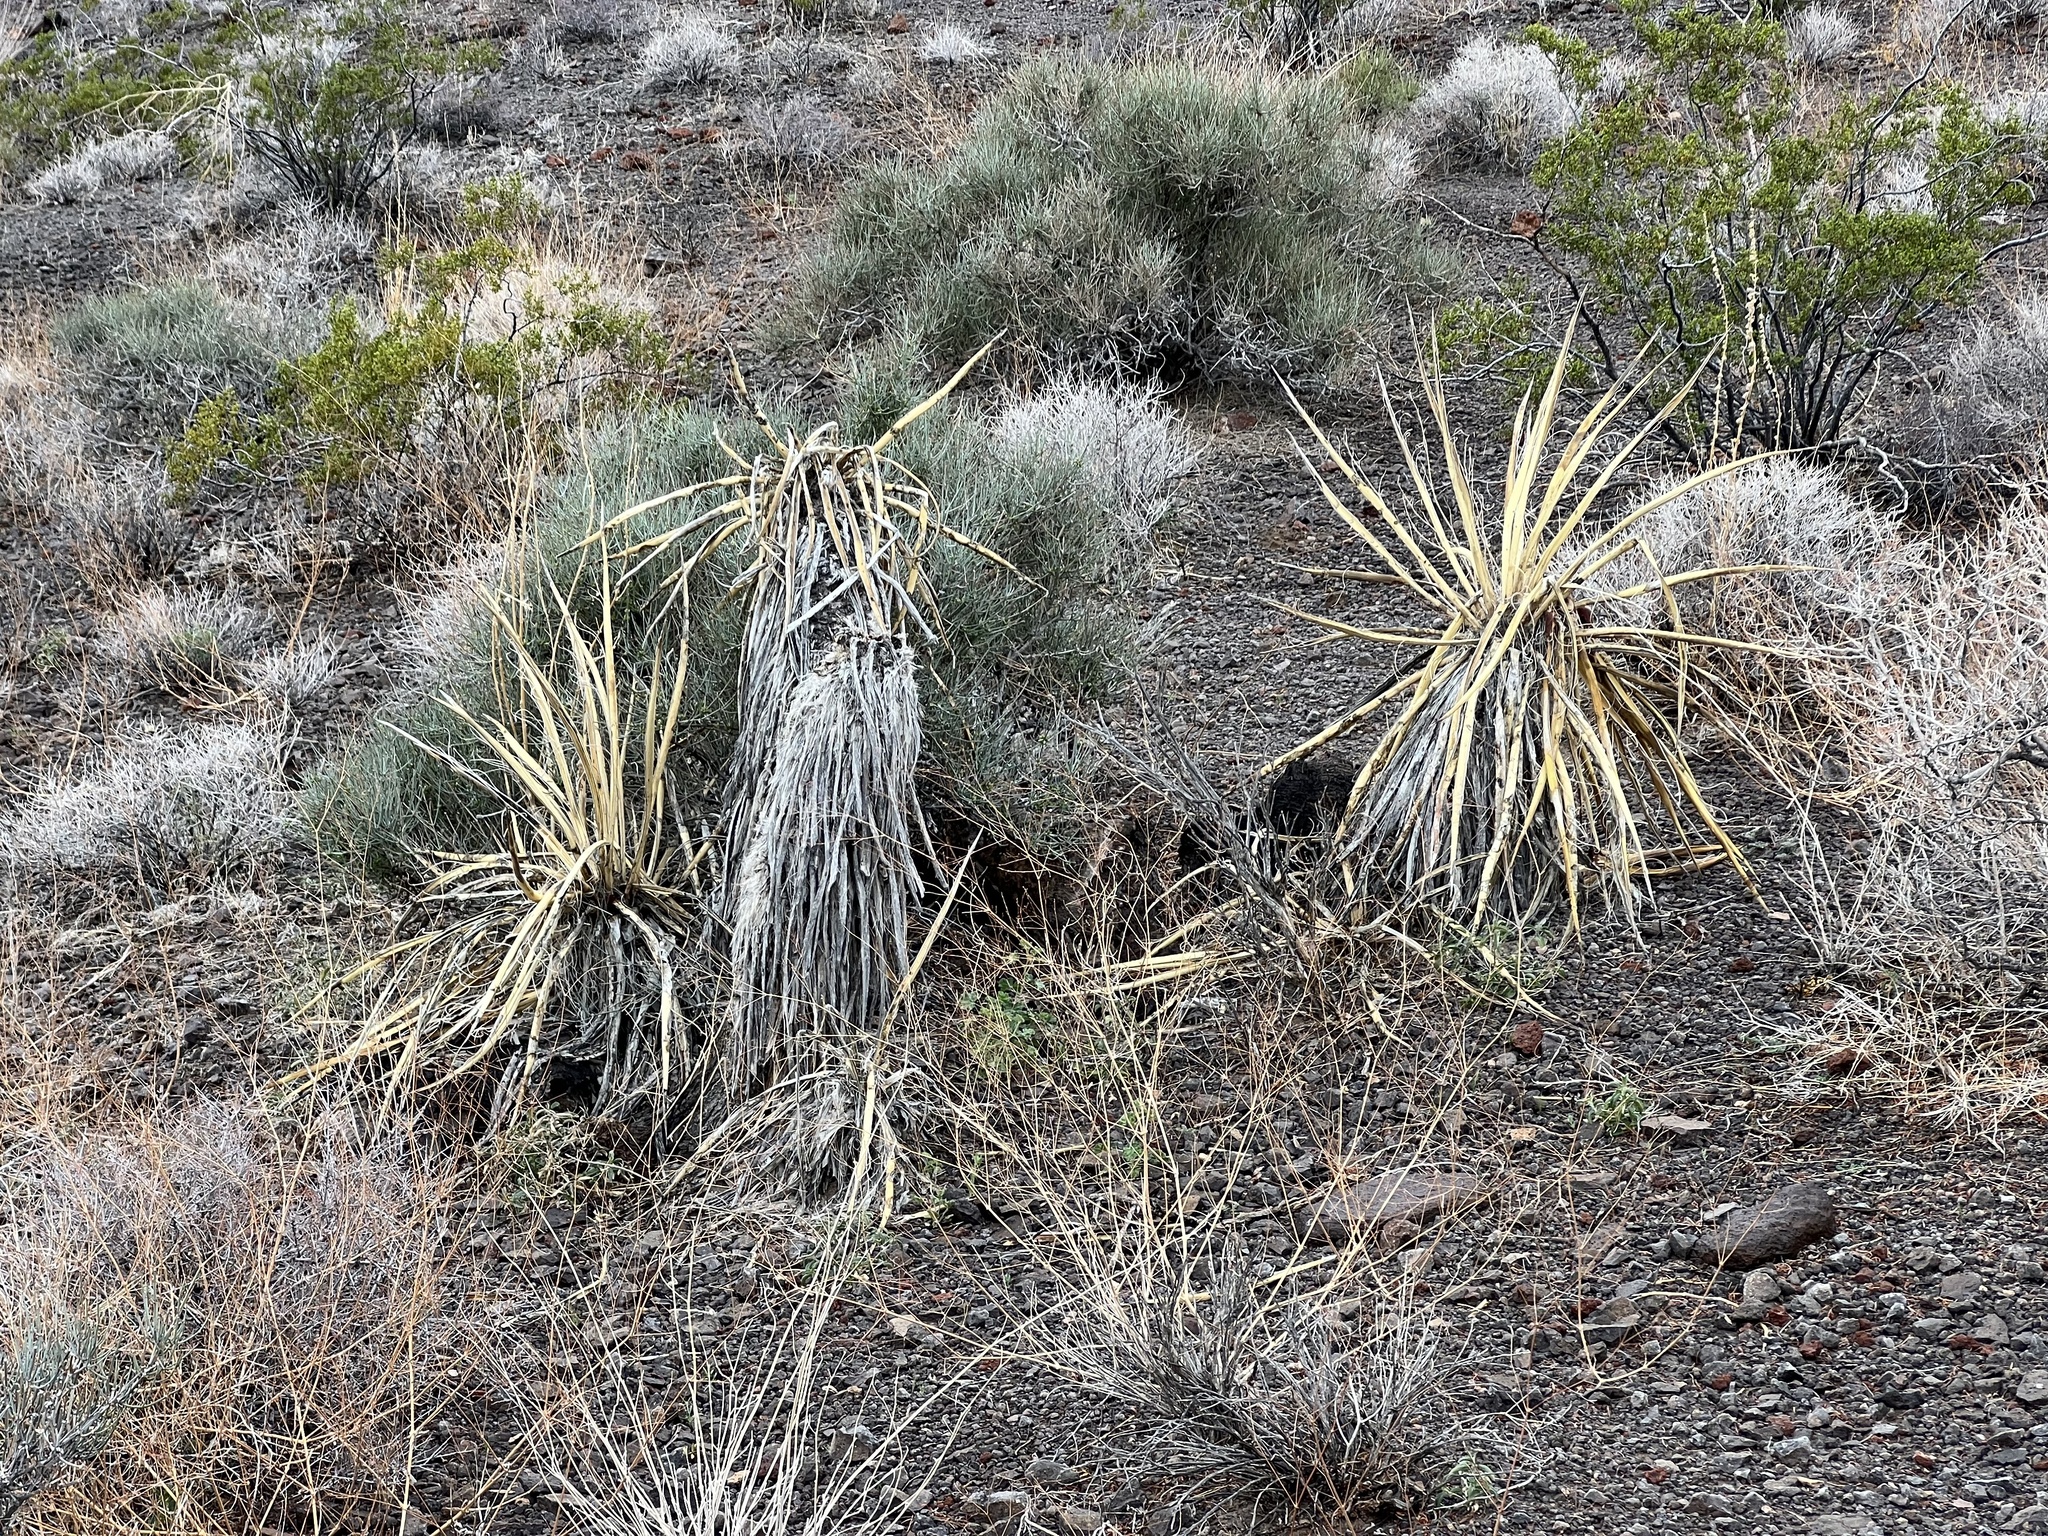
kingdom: Plantae
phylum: Tracheophyta
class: Liliopsida
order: Asparagales
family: Asparagaceae
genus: Yucca
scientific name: Yucca schidigera
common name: Mojave yucca
